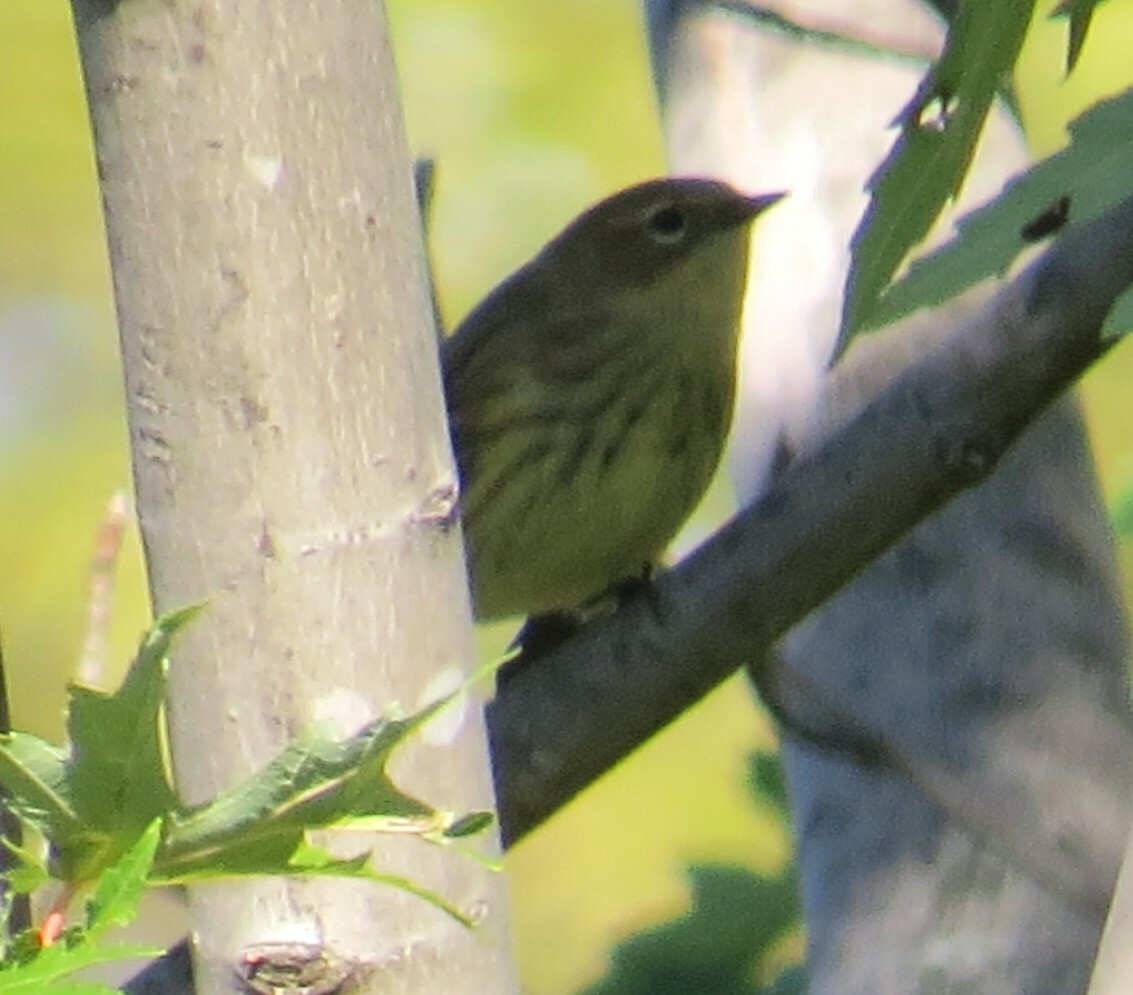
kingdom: Animalia
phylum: Chordata
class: Aves
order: Passeriformes
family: Parulidae
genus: Setophaga
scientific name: Setophaga coronata
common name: Myrtle warbler
